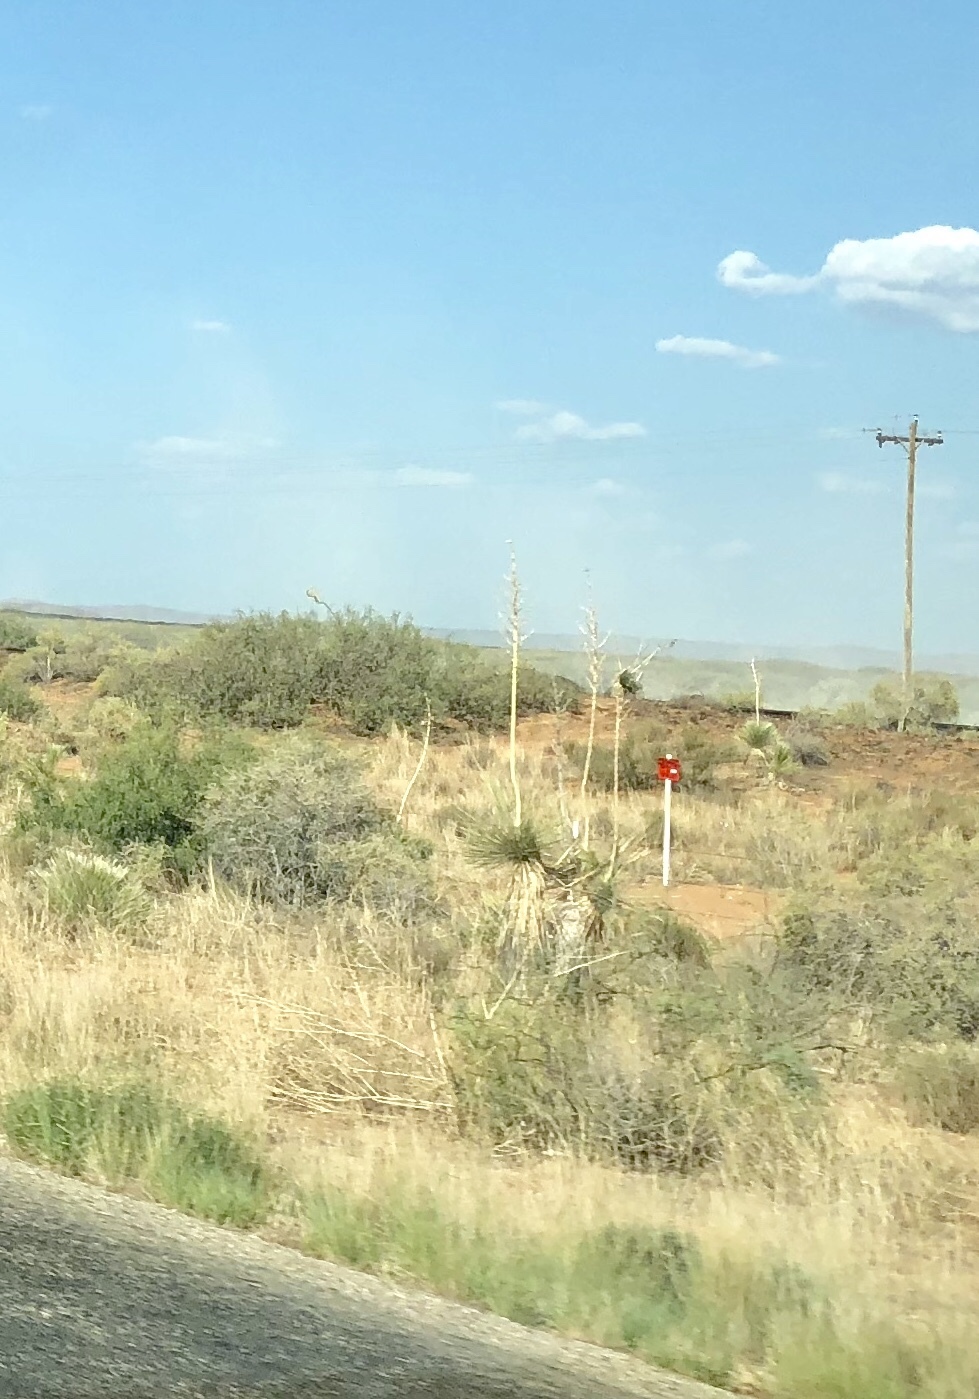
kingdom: Plantae
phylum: Tracheophyta
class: Liliopsida
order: Asparagales
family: Asparagaceae
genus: Yucca
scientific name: Yucca elata
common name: Palmella
